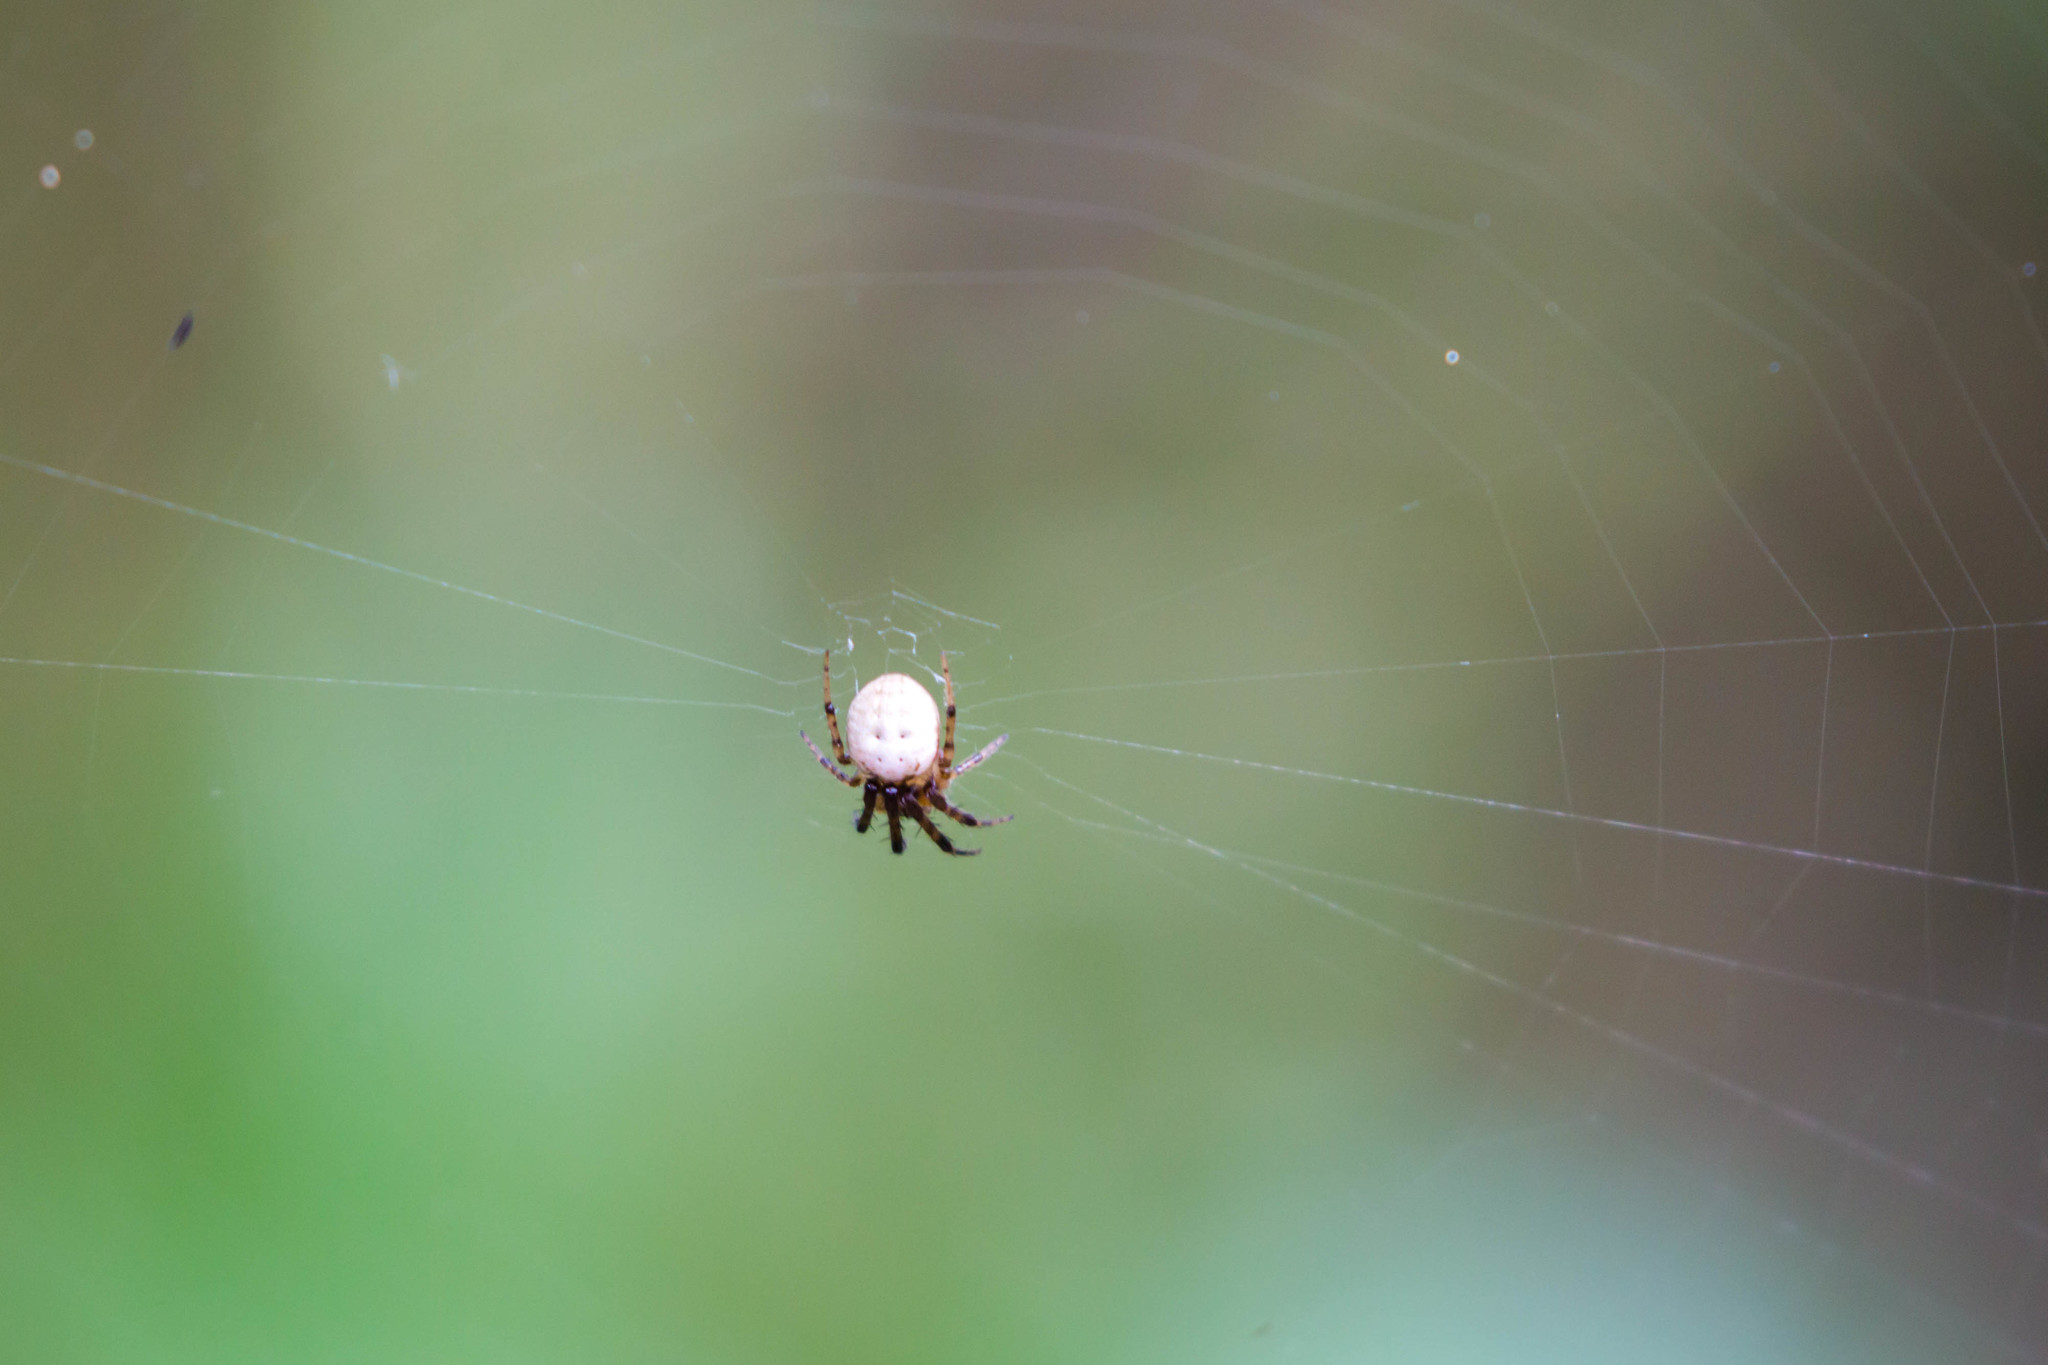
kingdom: Animalia
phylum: Arthropoda
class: Arachnida
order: Araneae
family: Araneidae
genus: Metazygia
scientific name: Metazygia zilloides
